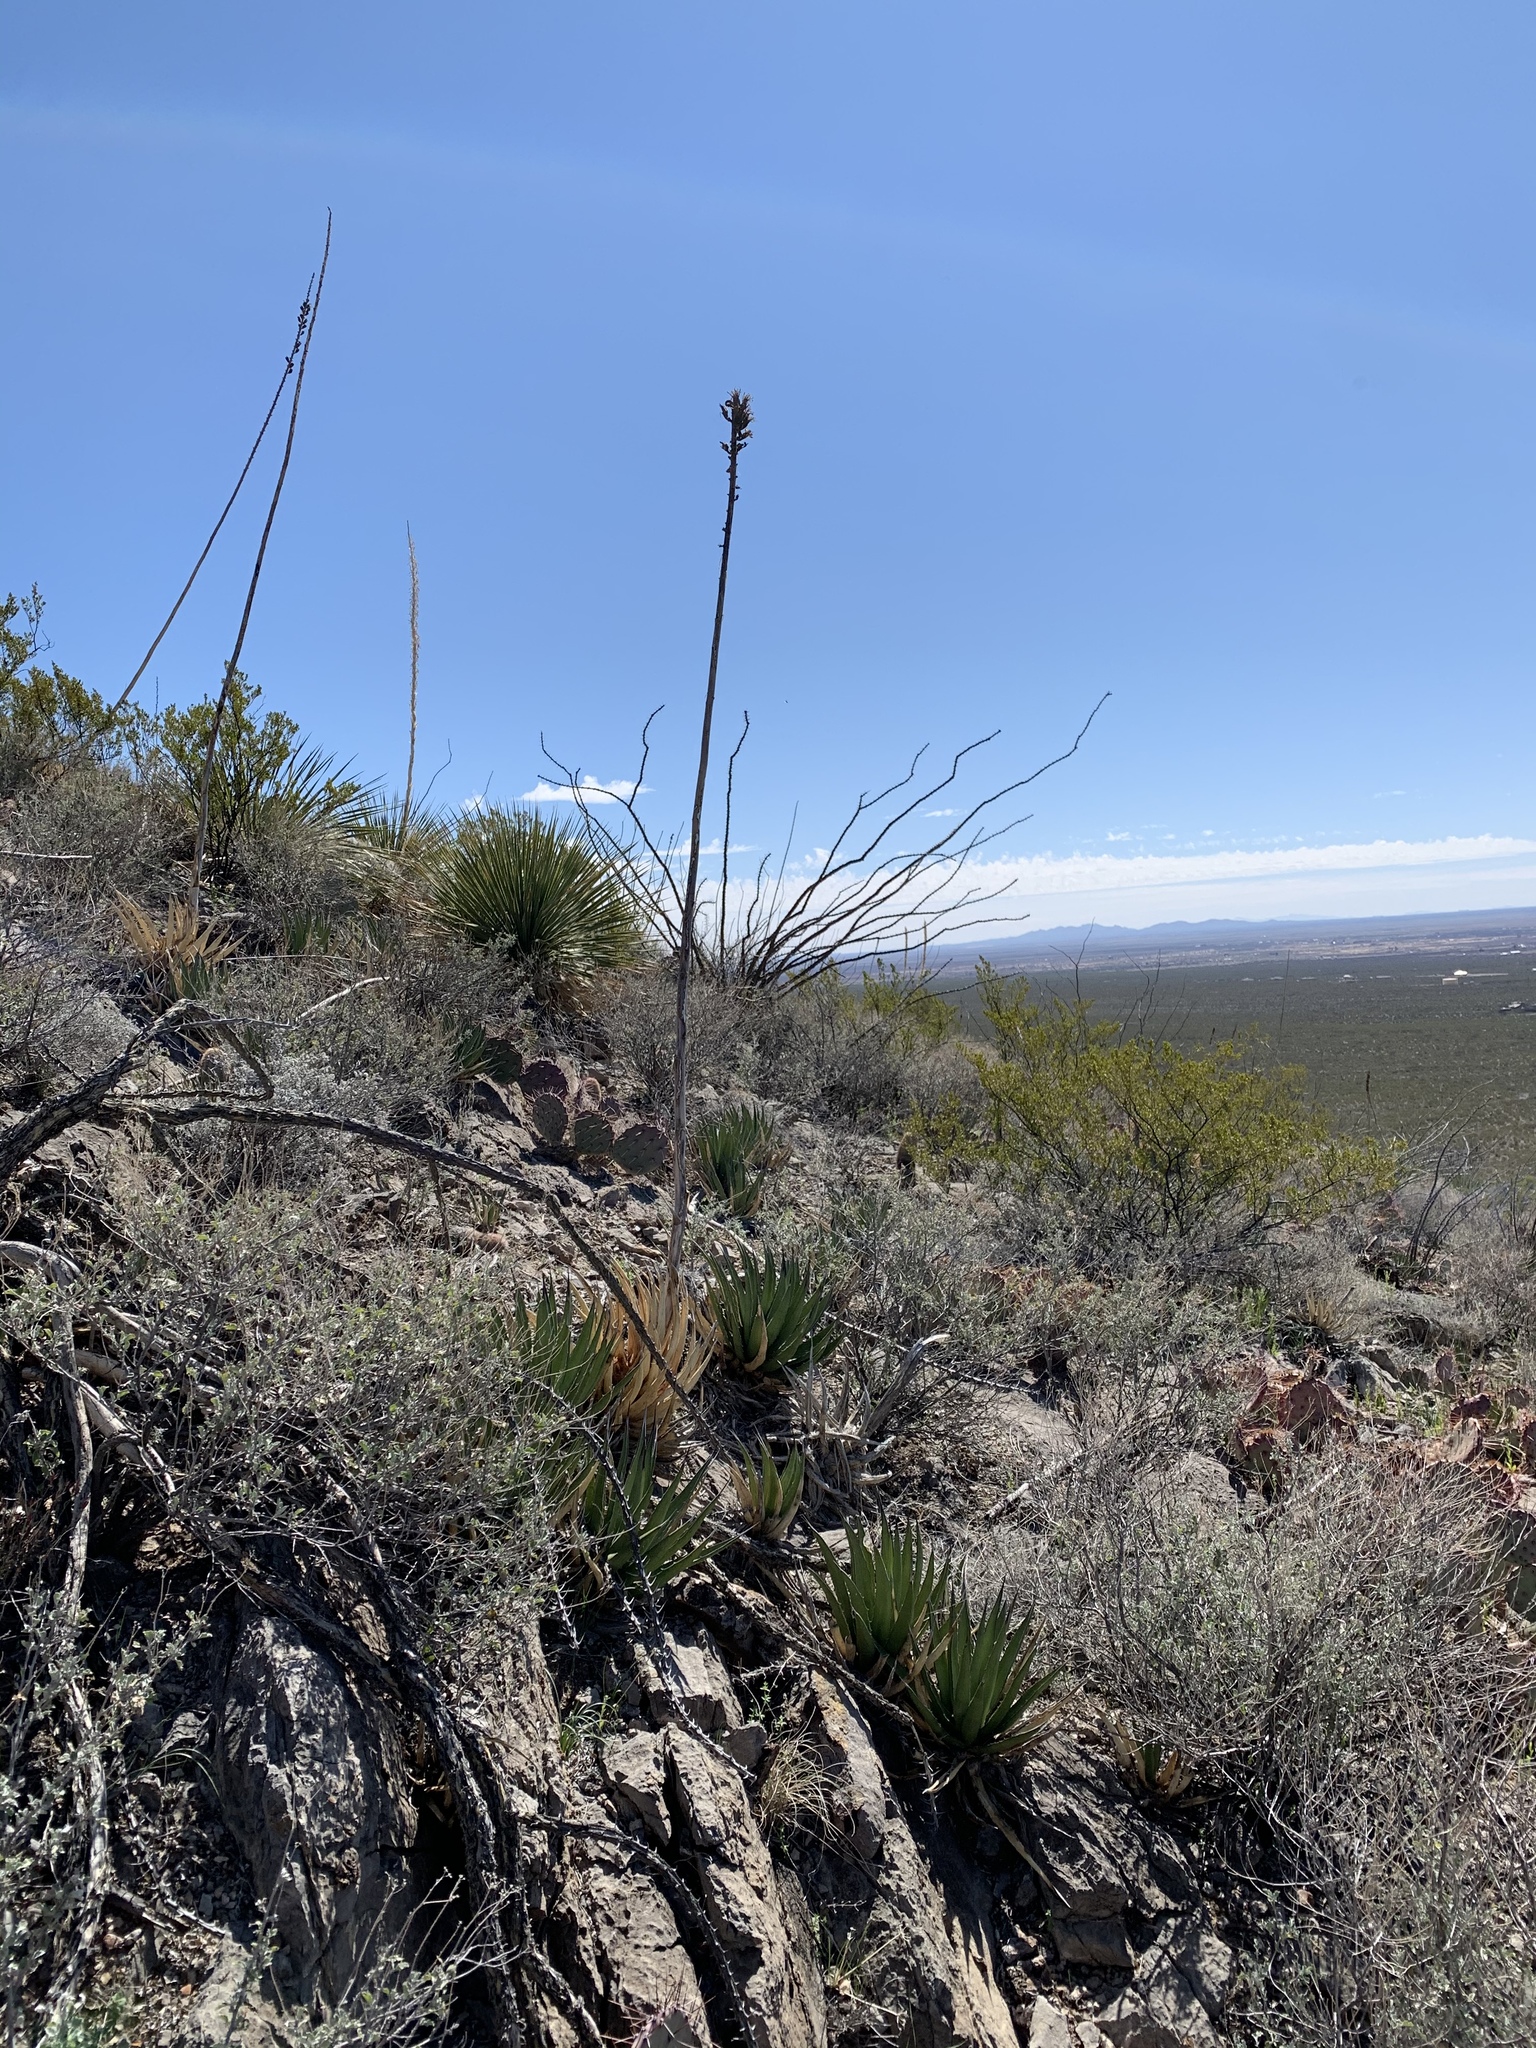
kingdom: Plantae
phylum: Tracheophyta
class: Liliopsida
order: Asparagales
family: Asparagaceae
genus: Agave
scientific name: Agave lechuguilla
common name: Lecheguilla agave
